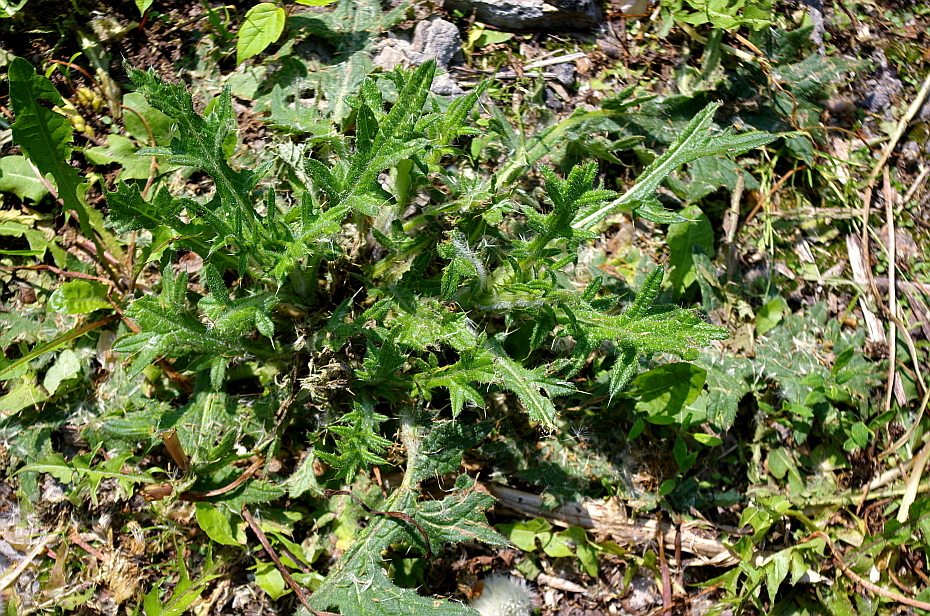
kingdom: Plantae
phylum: Tracheophyta
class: Magnoliopsida
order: Asterales
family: Asteraceae
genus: Cirsium
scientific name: Cirsium vulgare
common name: Bull thistle
